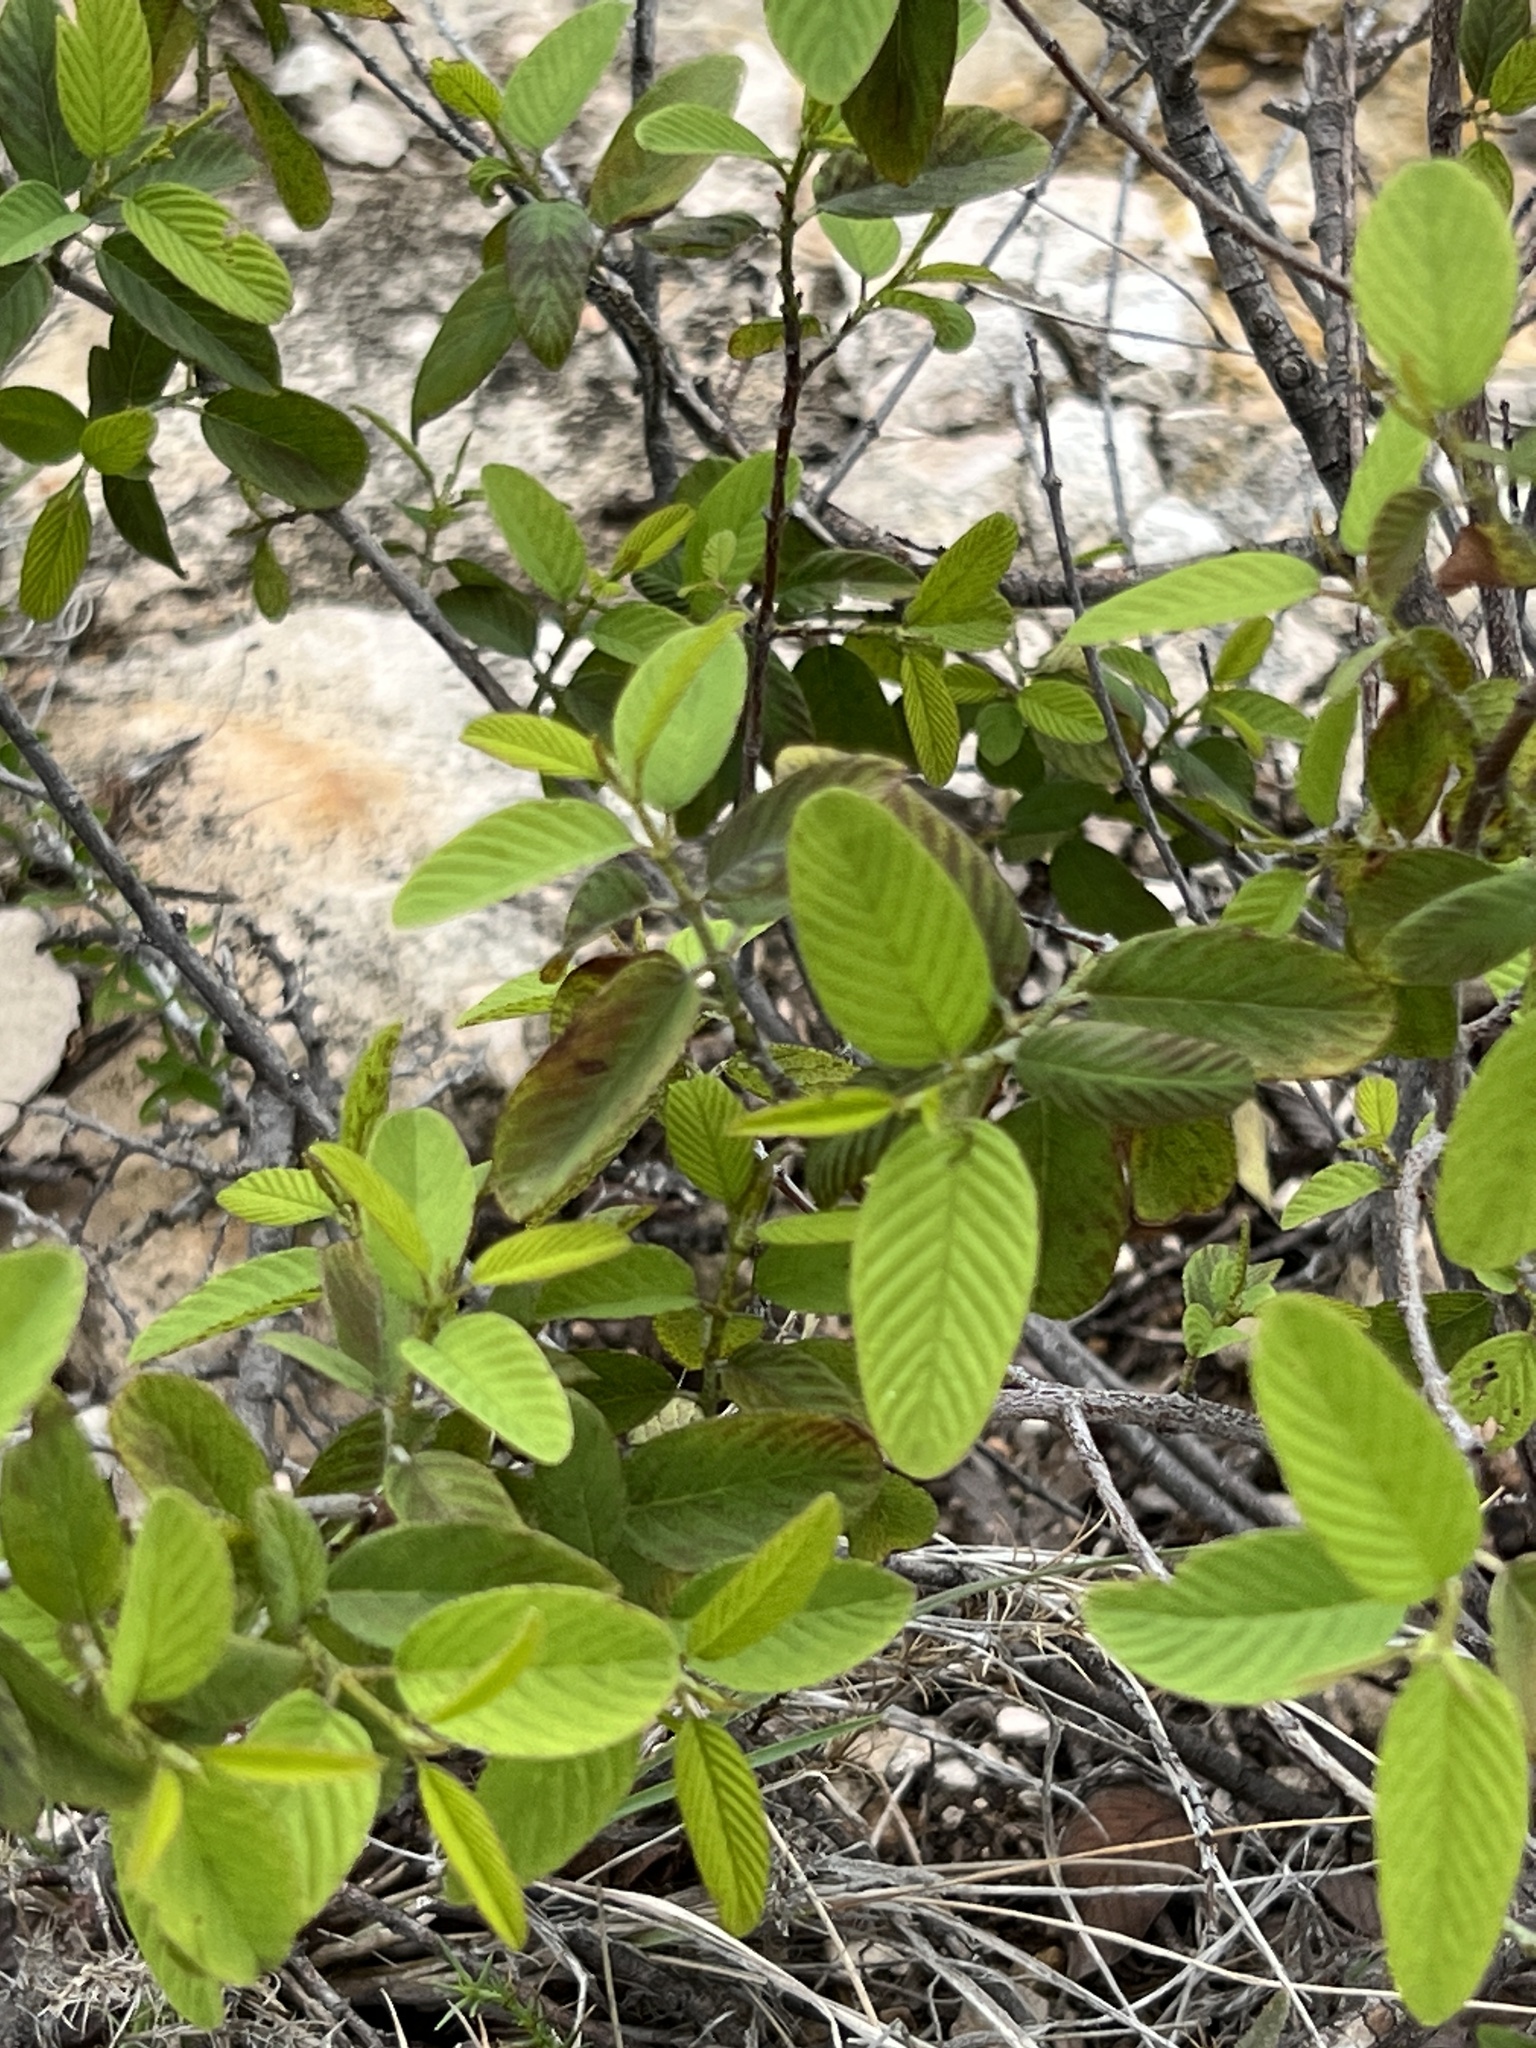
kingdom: Plantae
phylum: Tracheophyta
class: Magnoliopsida
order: Rosales
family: Rhamnaceae
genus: Karwinskia
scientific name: Karwinskia humboldtiana
